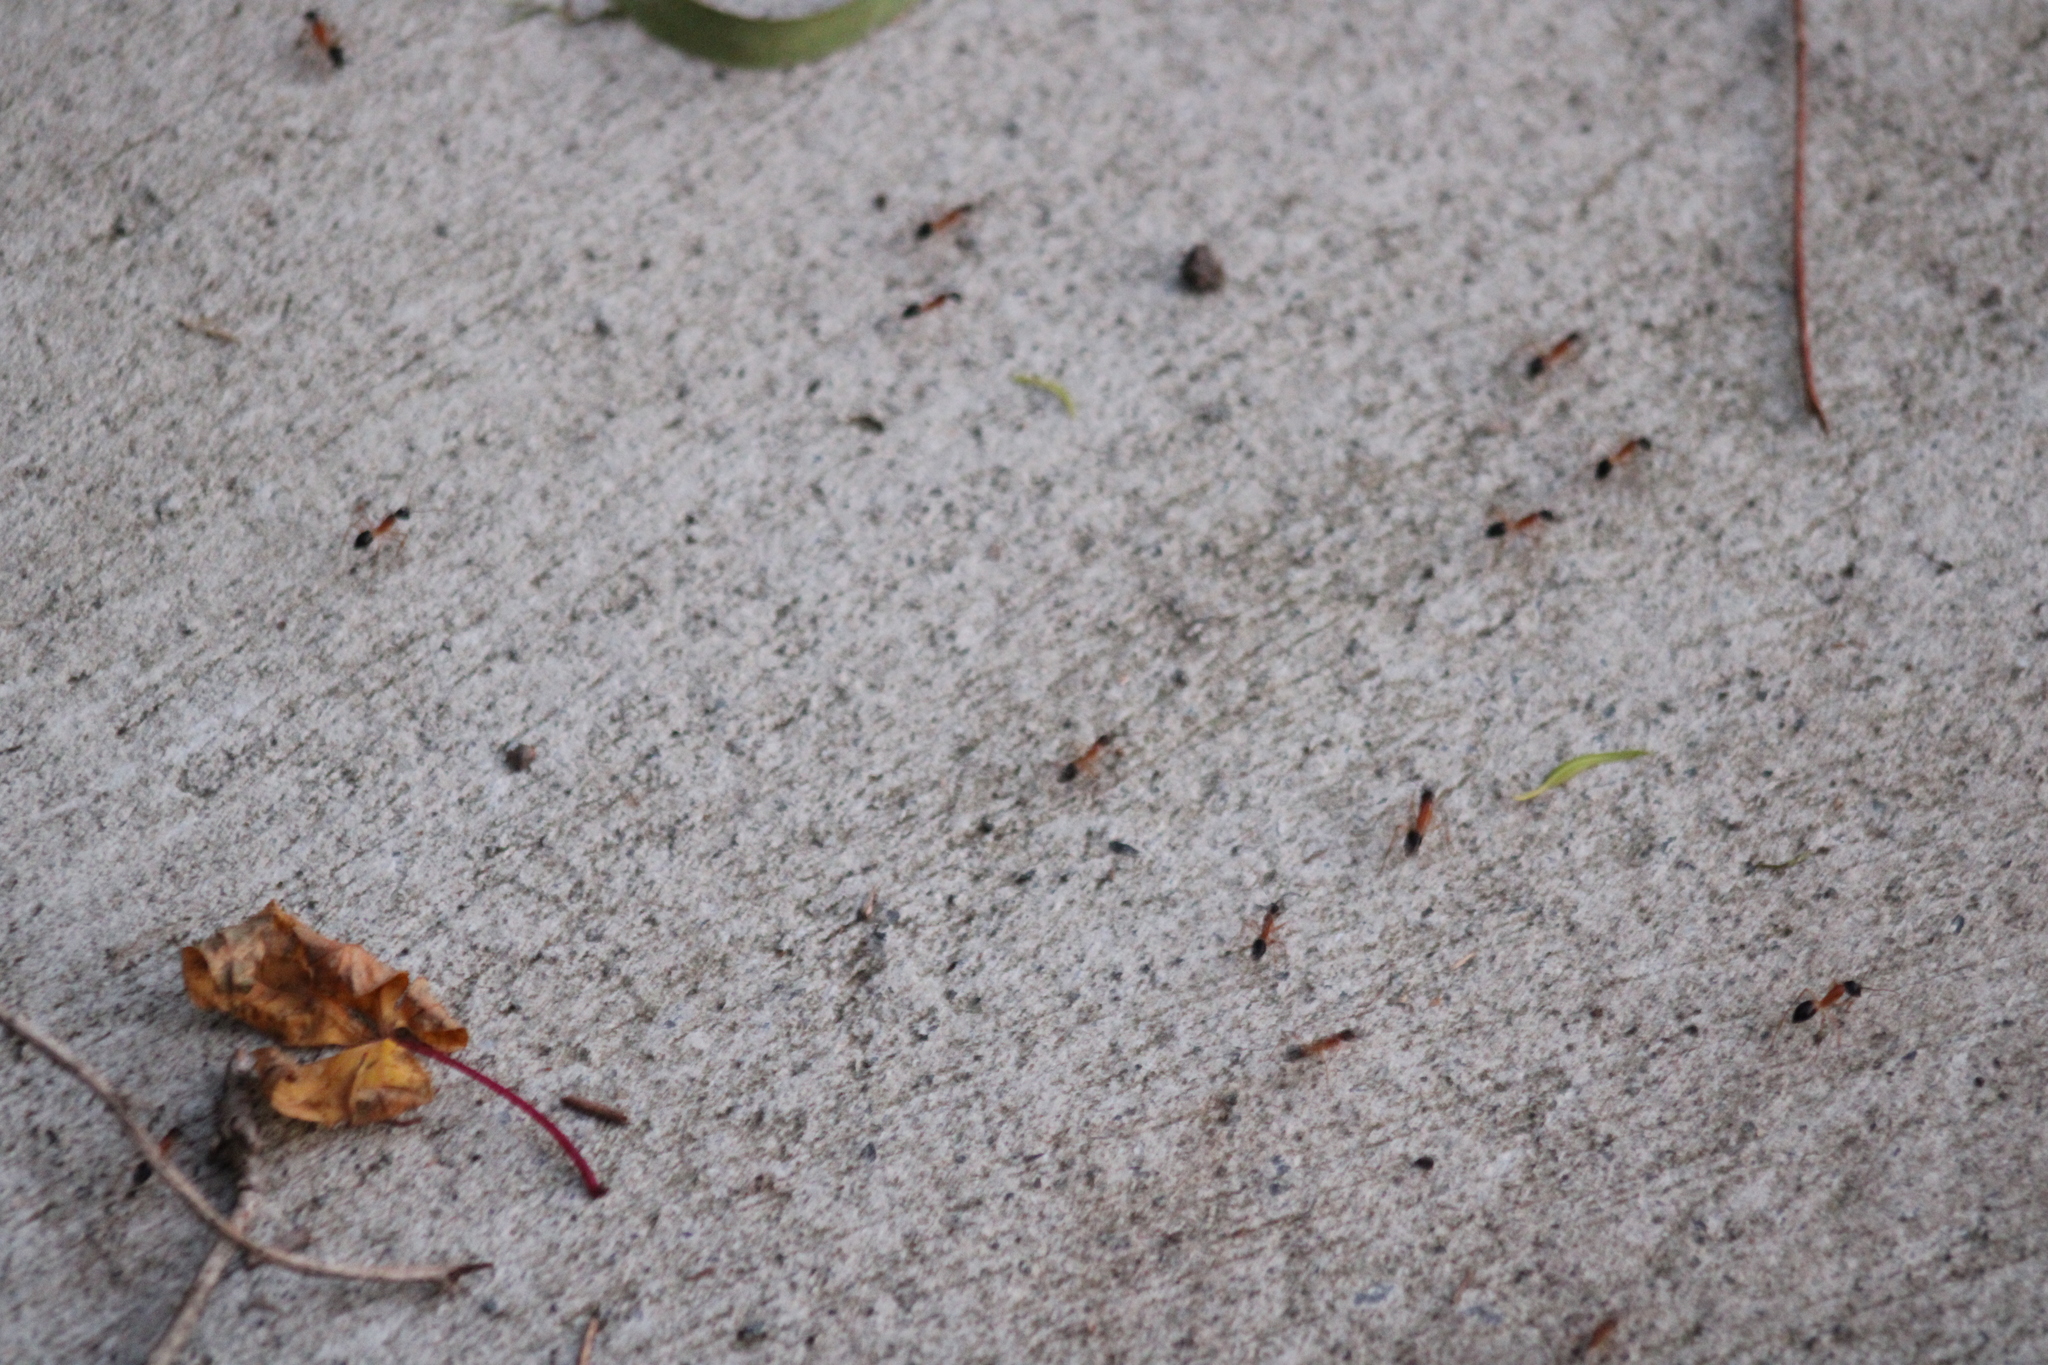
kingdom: Animalia
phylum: Arthropoda
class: Insecta
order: Hymenoptera
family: Formicidae
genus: Camponotus
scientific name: Camponotus consobrinus
